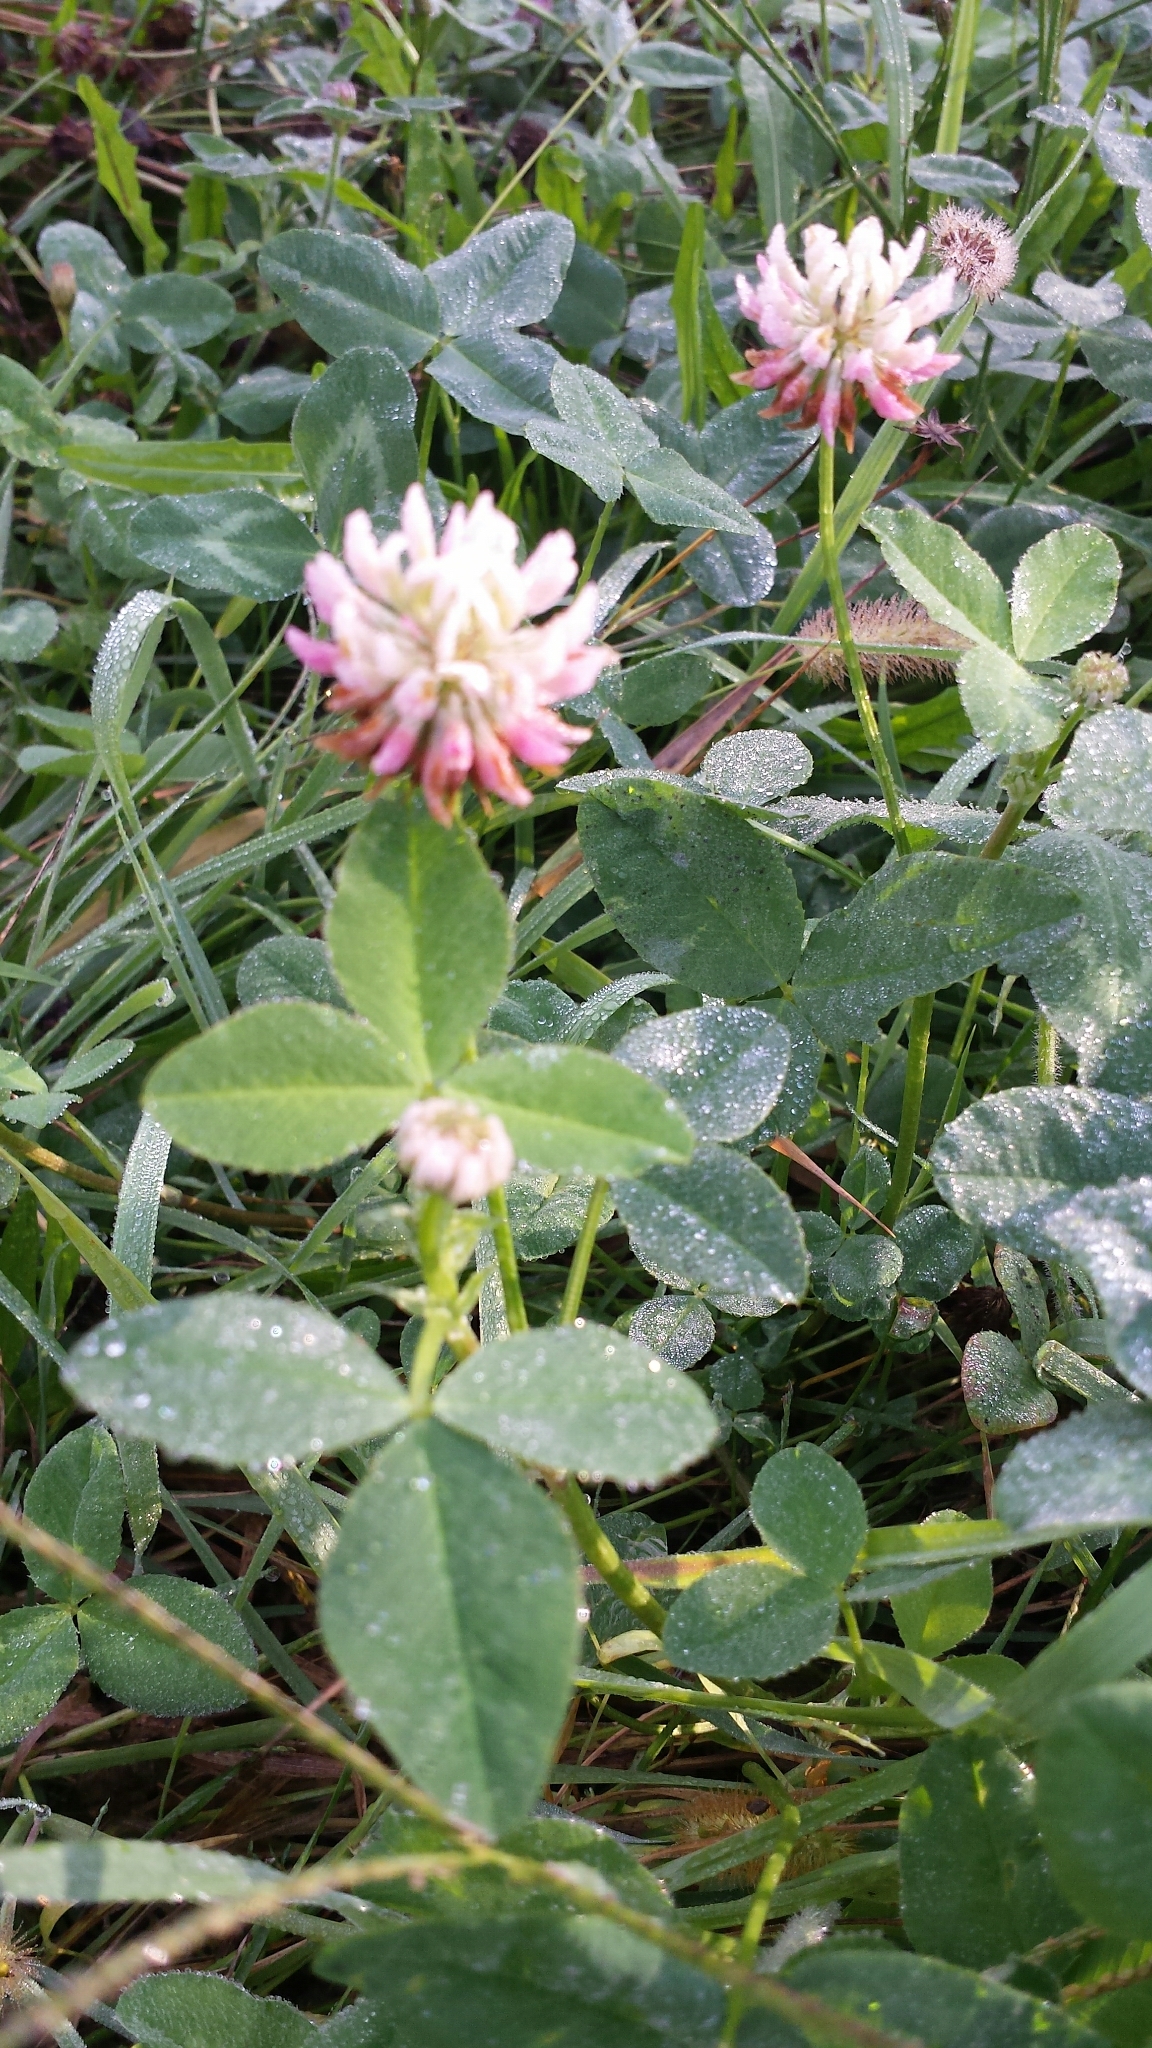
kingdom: Plantae
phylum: Tracheophyta
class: Magnoliopsida
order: Fabales
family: Fabaceae
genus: Trifolium
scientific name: Trifolium hybridum
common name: Alsike clover
